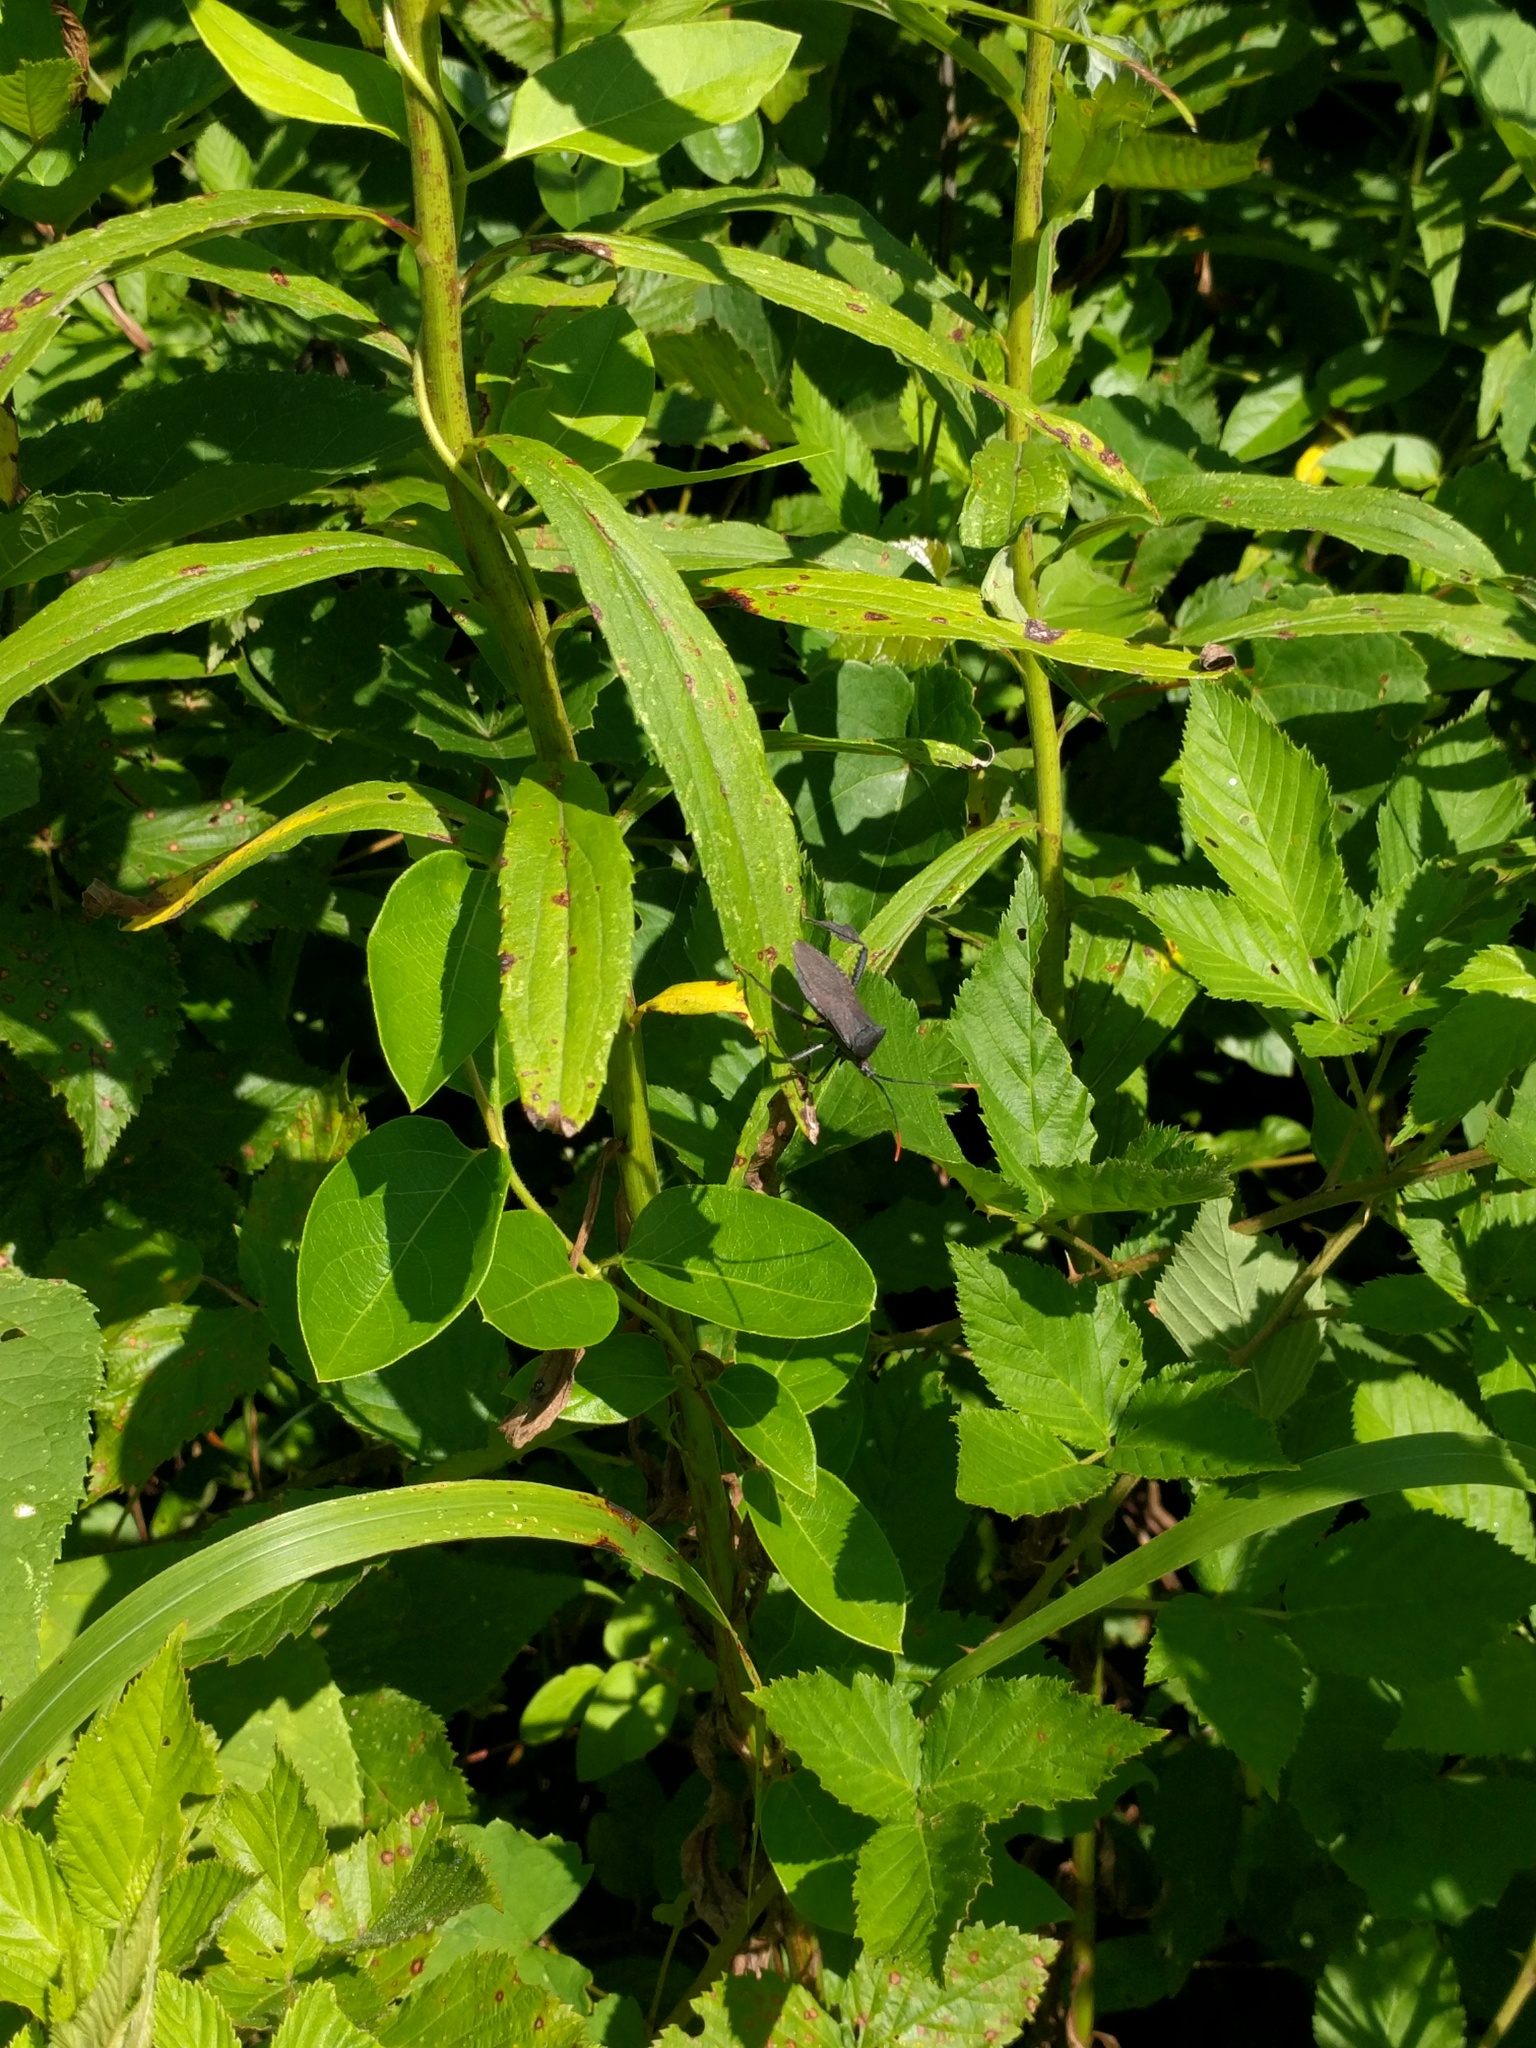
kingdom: Animalia
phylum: Arthropoda
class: Insecta
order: Hemiptera
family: Coreidae
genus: Acanthocephala
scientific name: Acanthocephala terminalis
